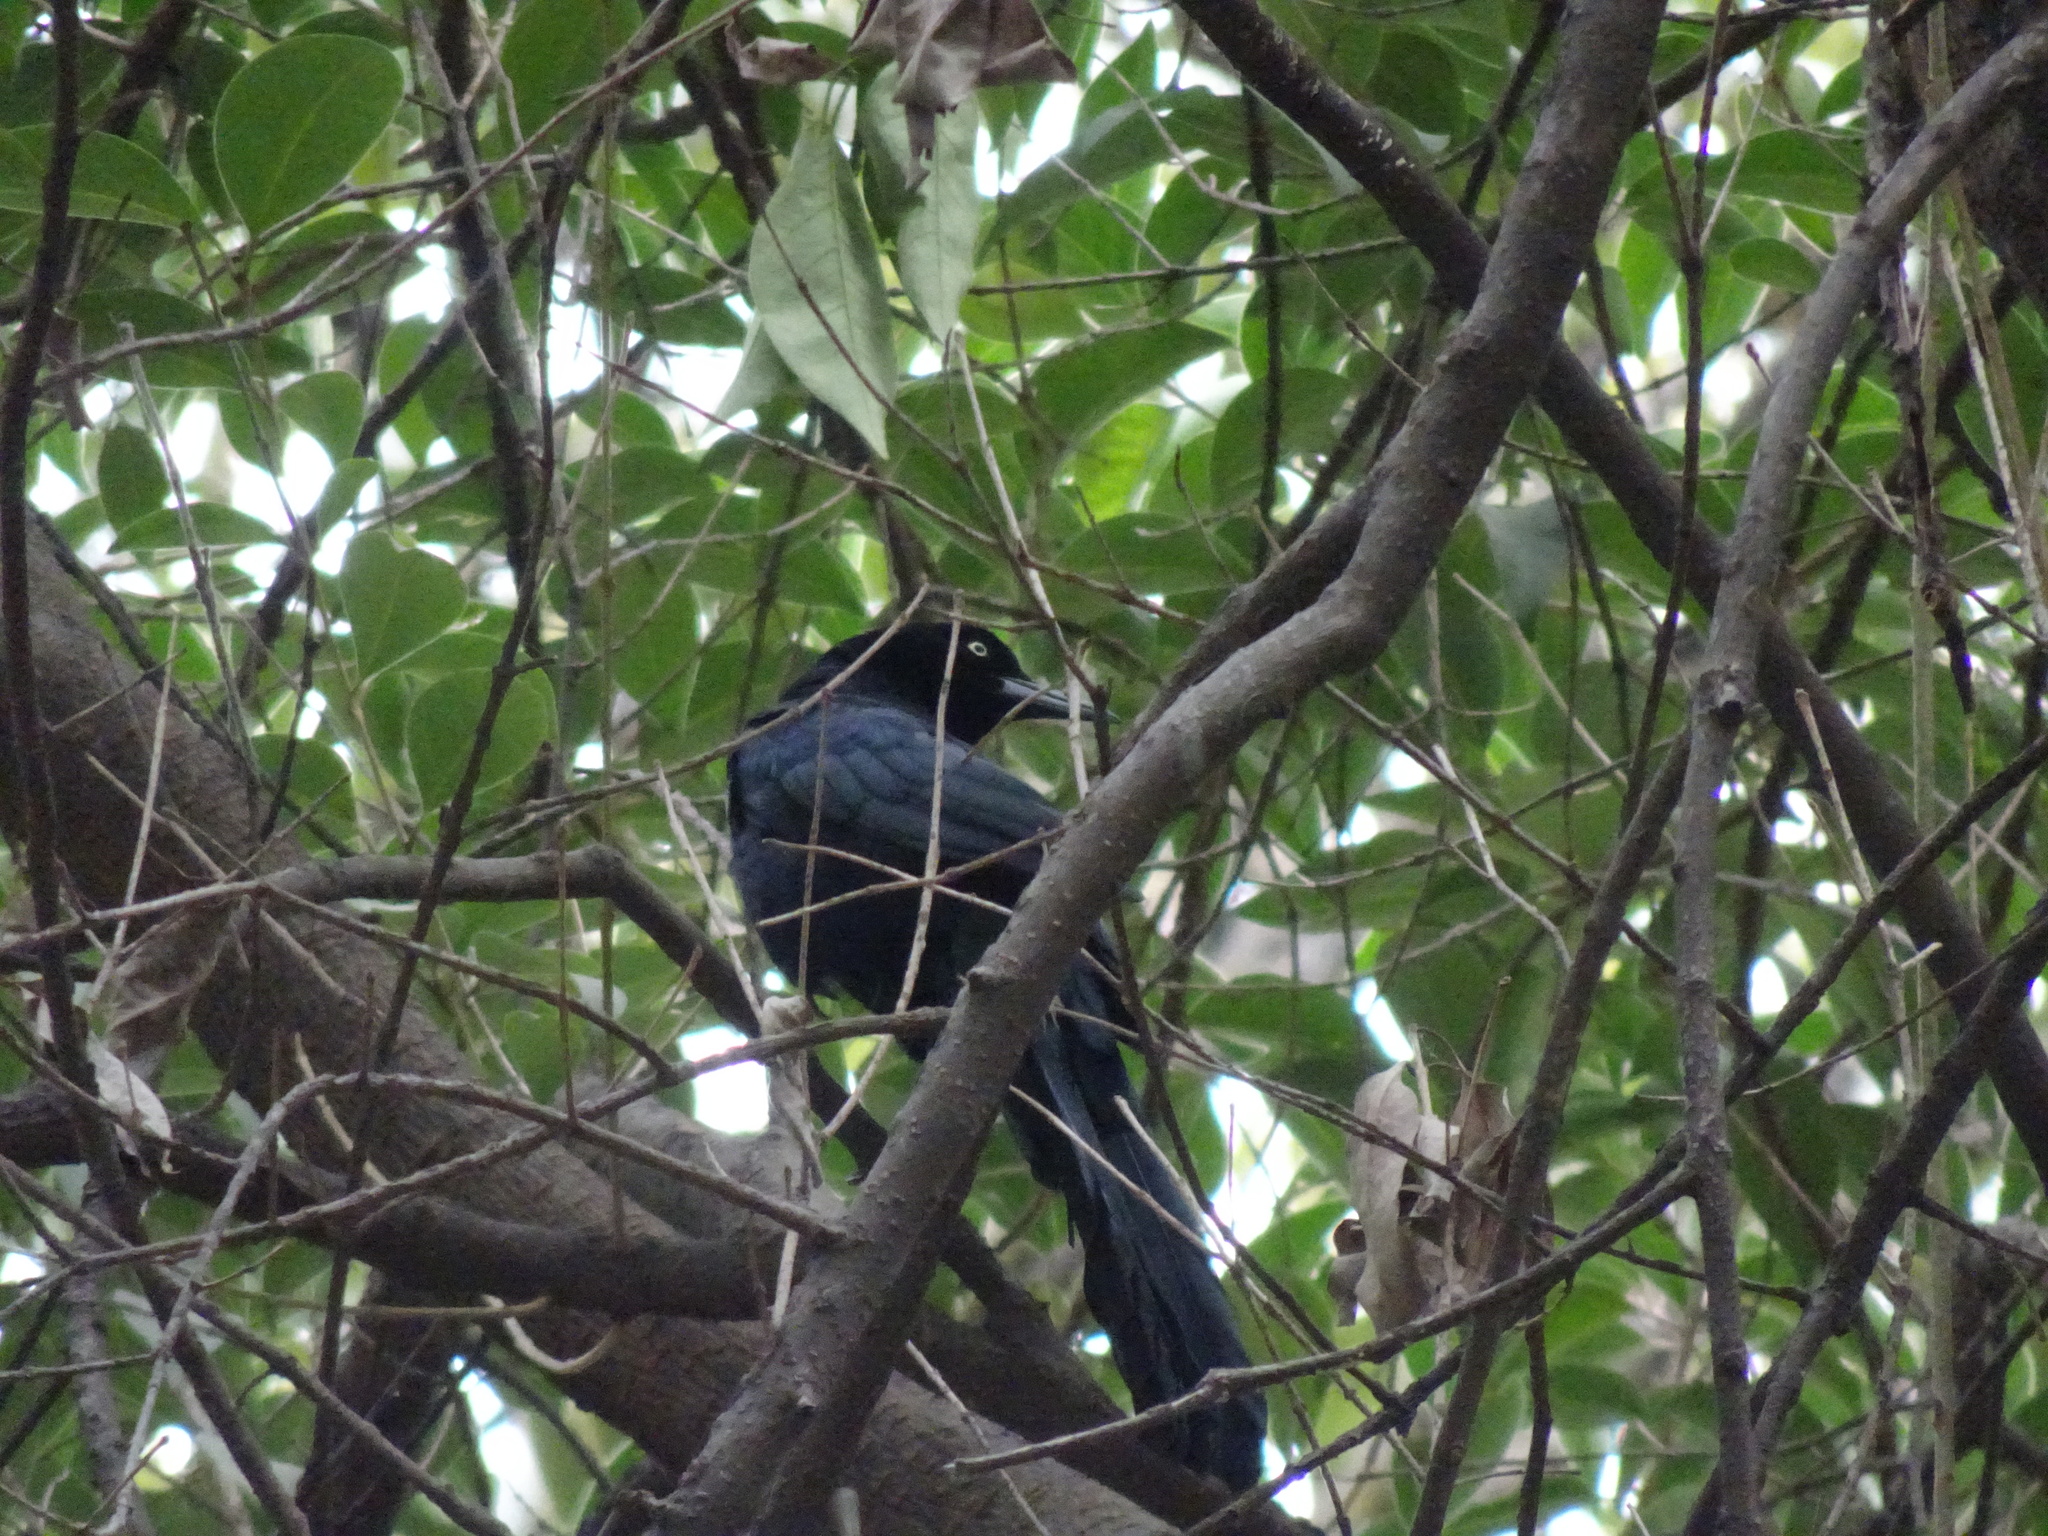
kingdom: Animalia
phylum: Chordata
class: Aves
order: Passeriformes
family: Icteridae
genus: Quiscalus
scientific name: Quiscalus mexicanus
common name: Great-tailed grackle
